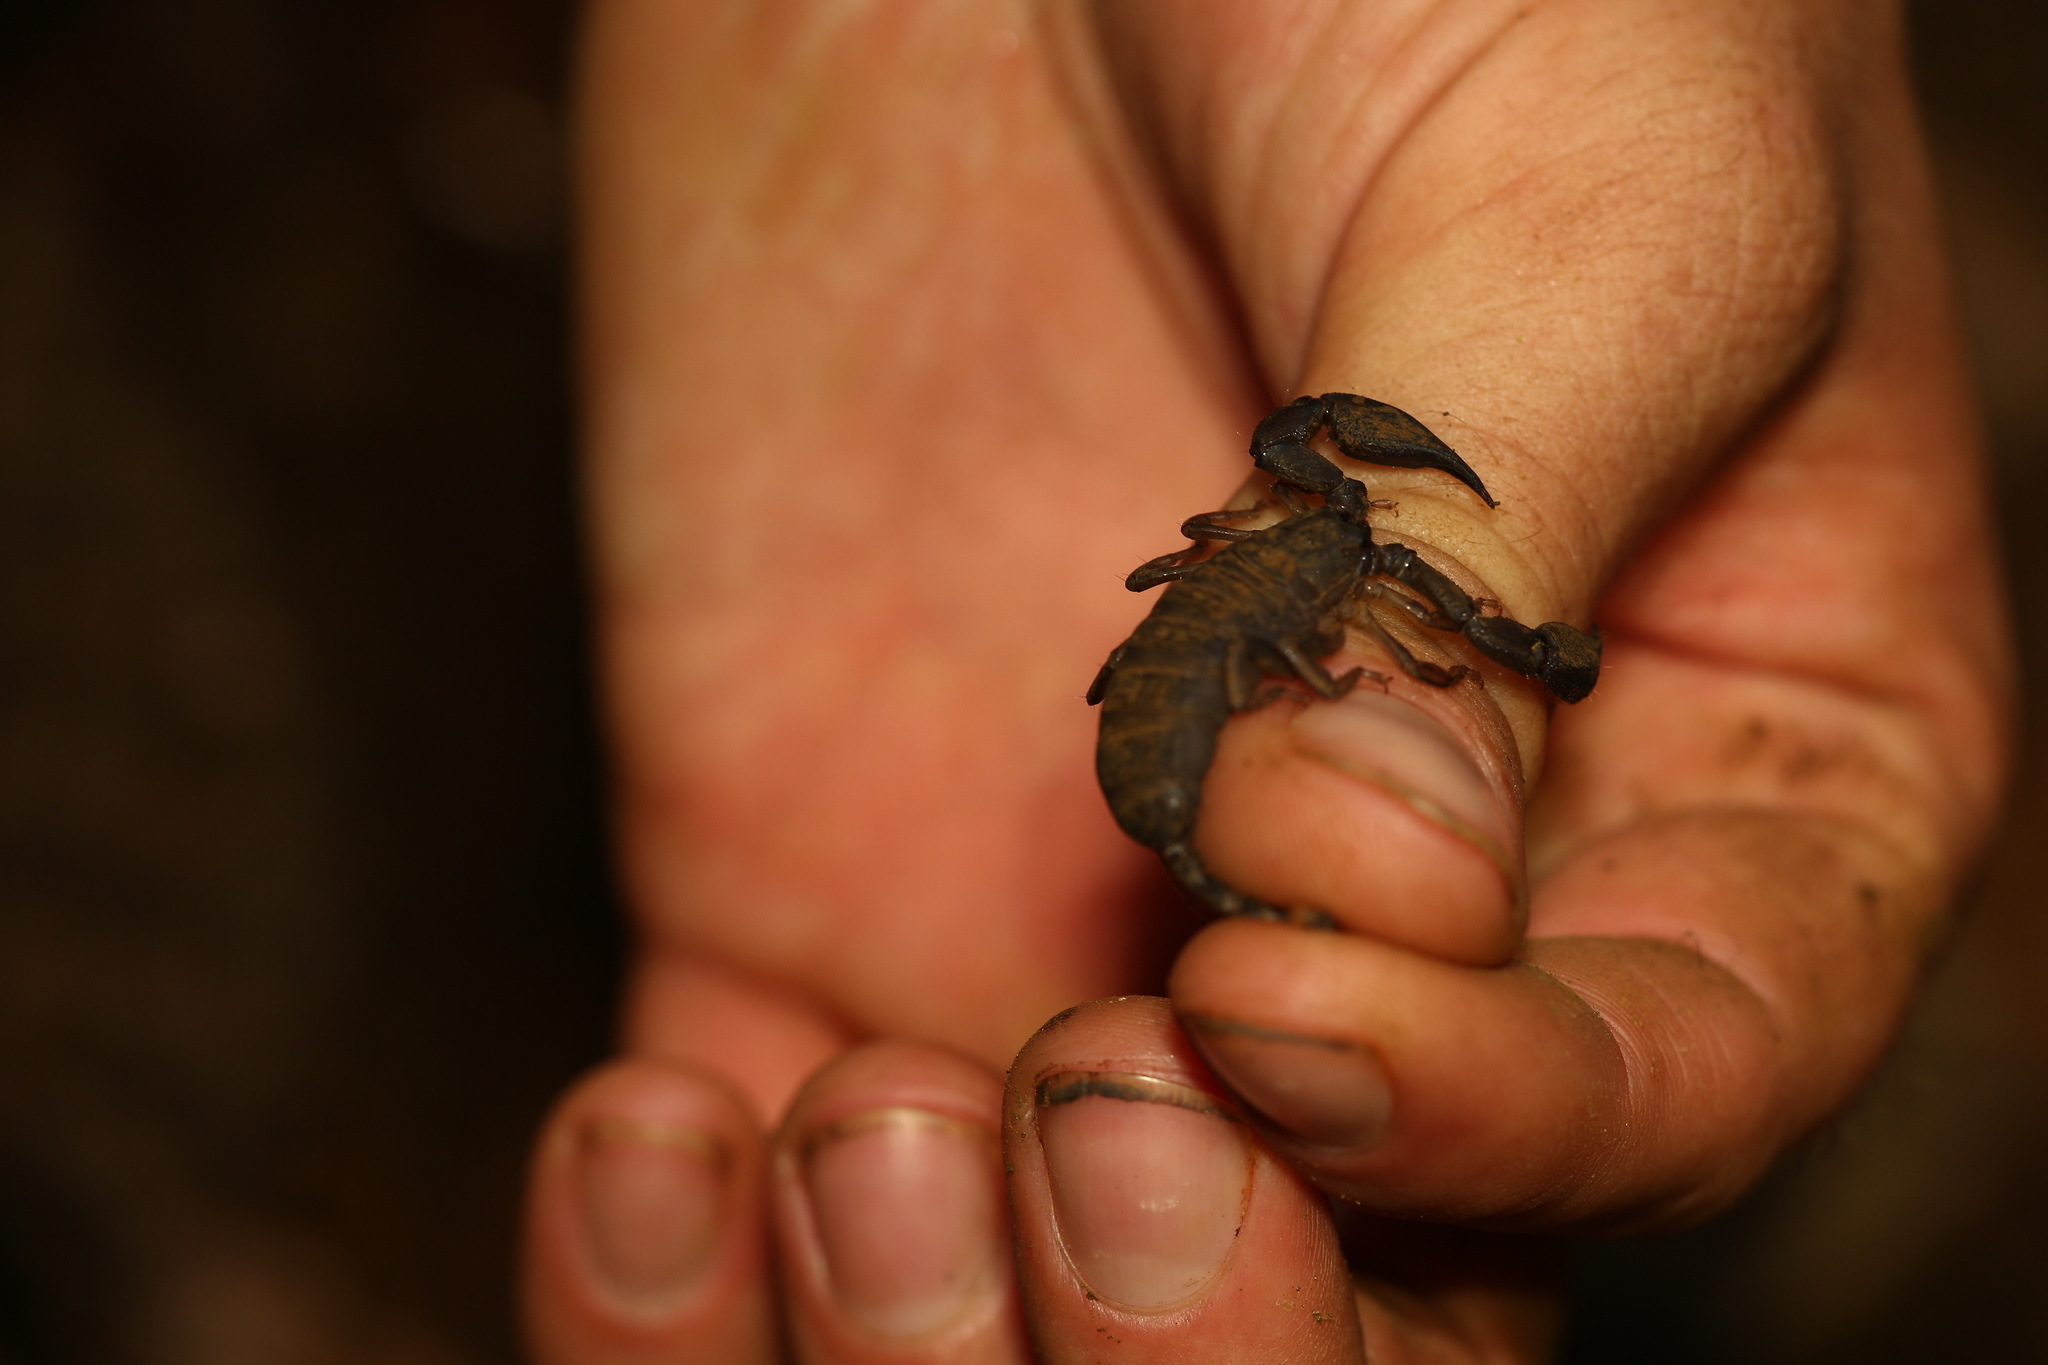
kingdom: Animalia
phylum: Arthropoda
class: Arachnida
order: Scorpiones
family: Hormuridae
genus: Hormurus
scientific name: Hormurus neocaledonicus
